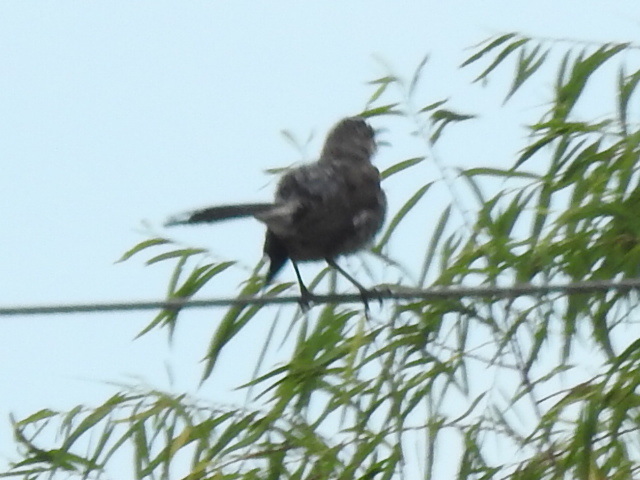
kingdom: Animalia
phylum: Chordata
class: Aves
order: Passeriformes
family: Mimidae
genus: Mimus
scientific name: Mimus polyglottos
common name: Northern mockingbird
